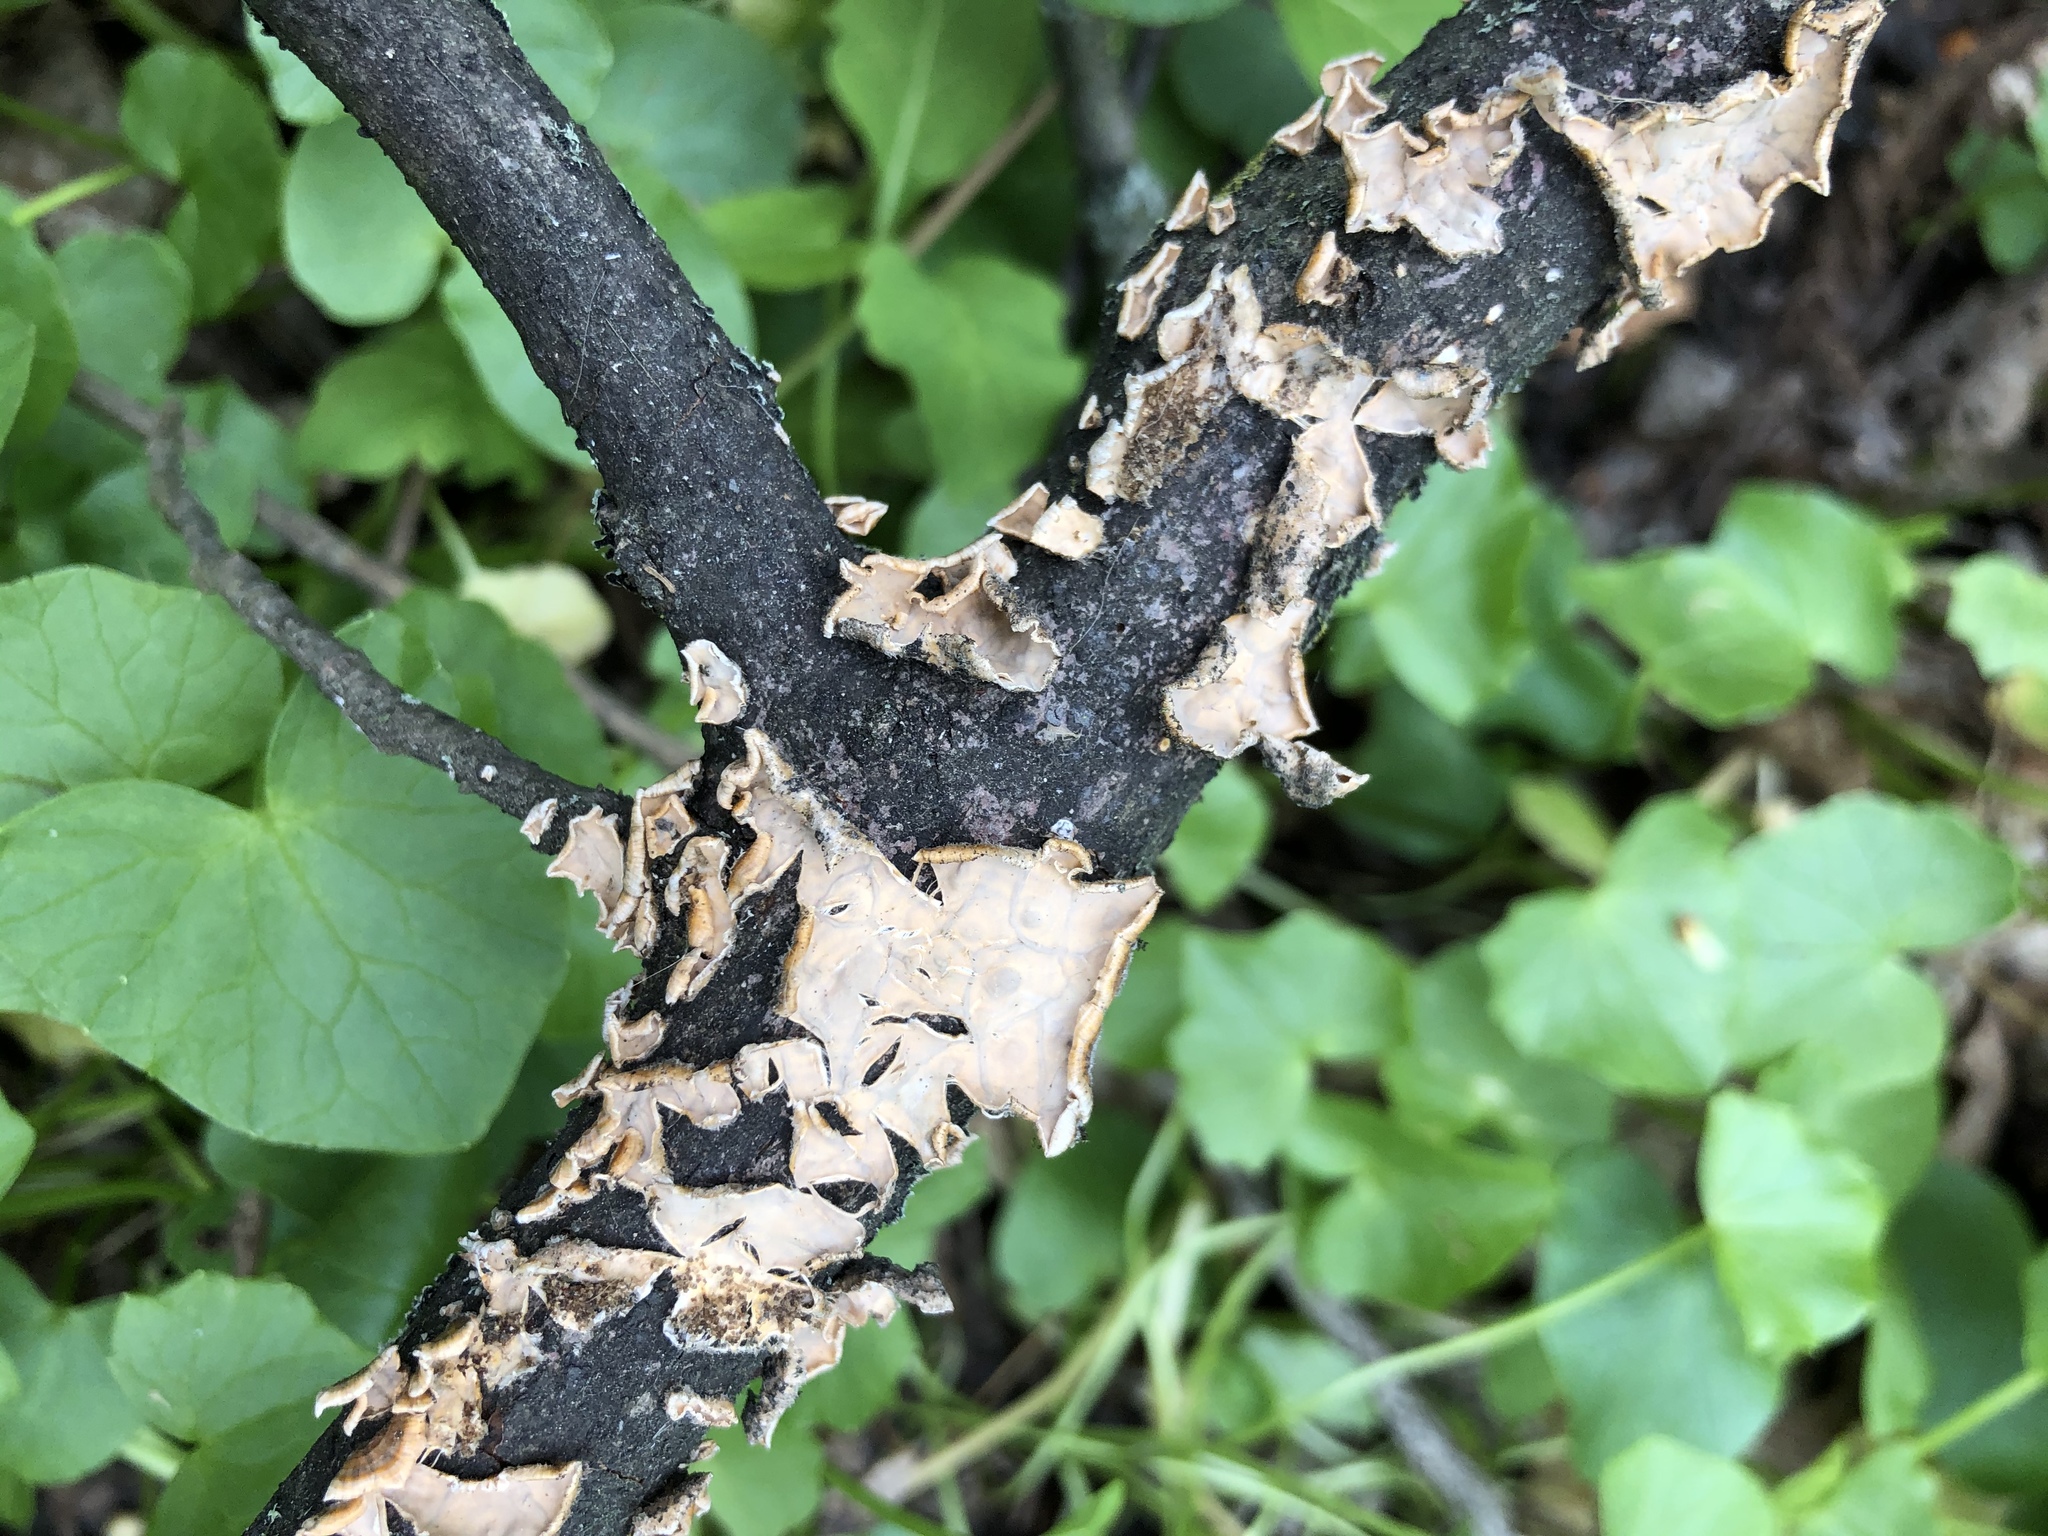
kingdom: Fungi
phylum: Basidiomycota
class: Agaricomycetes
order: Russulales
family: Stereaceae
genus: Stereum
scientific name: Stereum complicatum
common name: Crowded parchment
